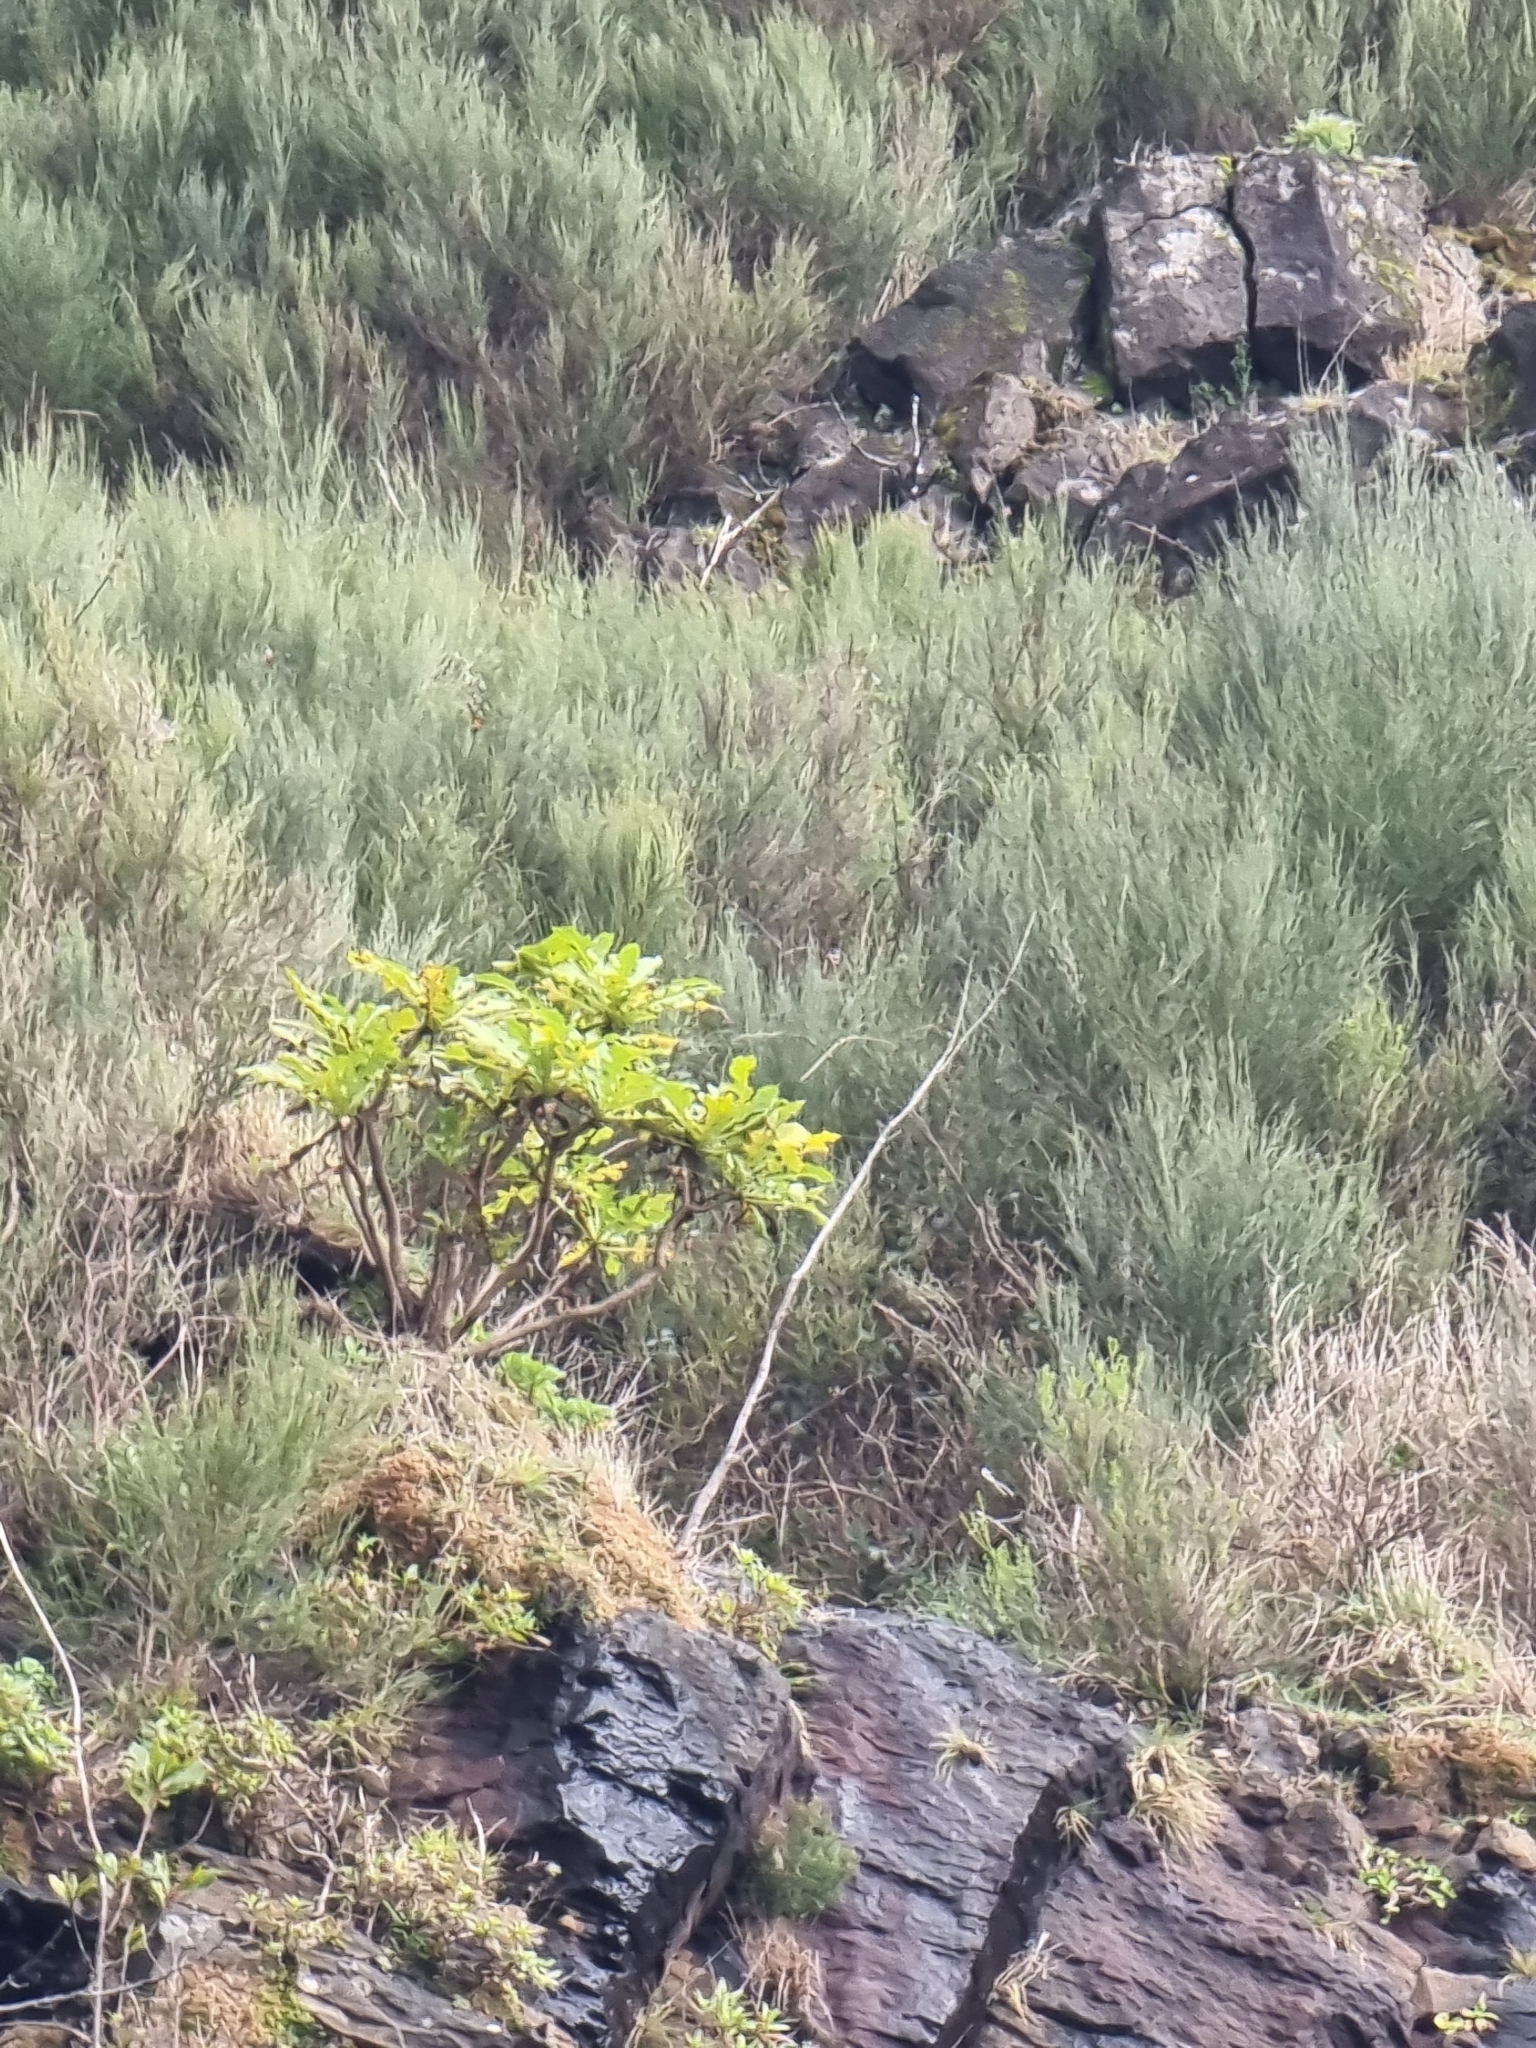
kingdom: Plantae
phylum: Tracheophyta
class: Magnoliopsida
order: Asterales
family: Asteraceae
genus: Sonchus
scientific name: Sonchus fruticosus
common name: Shrubby sow-thistle
